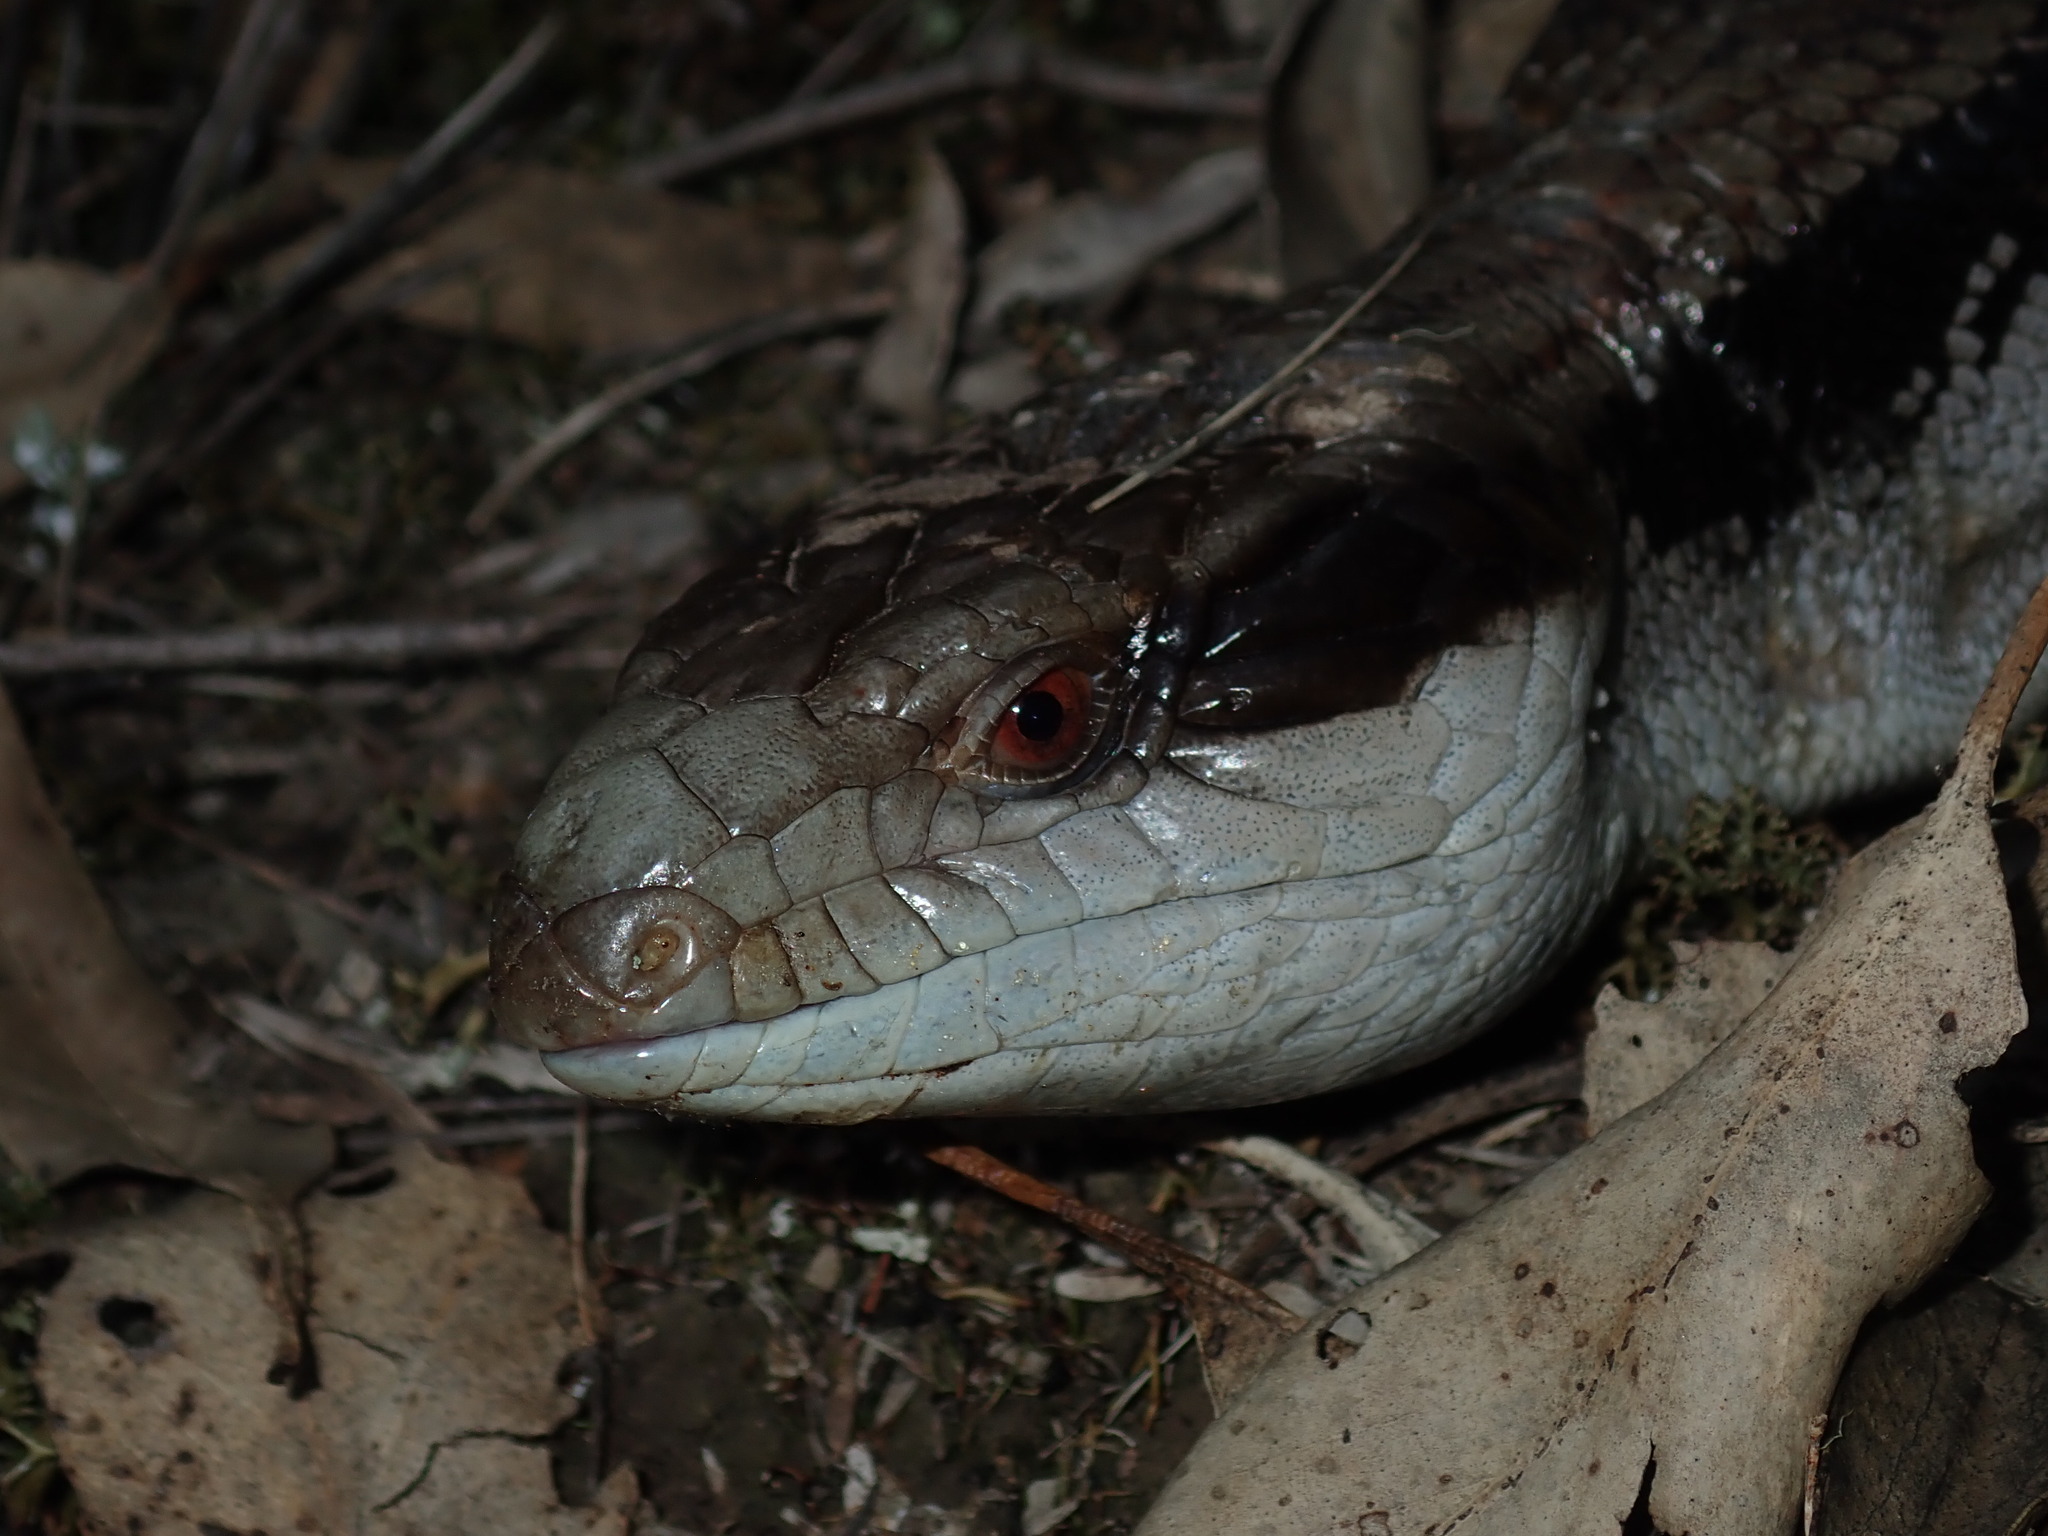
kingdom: Animalia
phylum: Chordata
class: Squamata
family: Scincidae
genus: Tiliqua
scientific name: Tiliqua scincoides
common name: Common bluetongue
